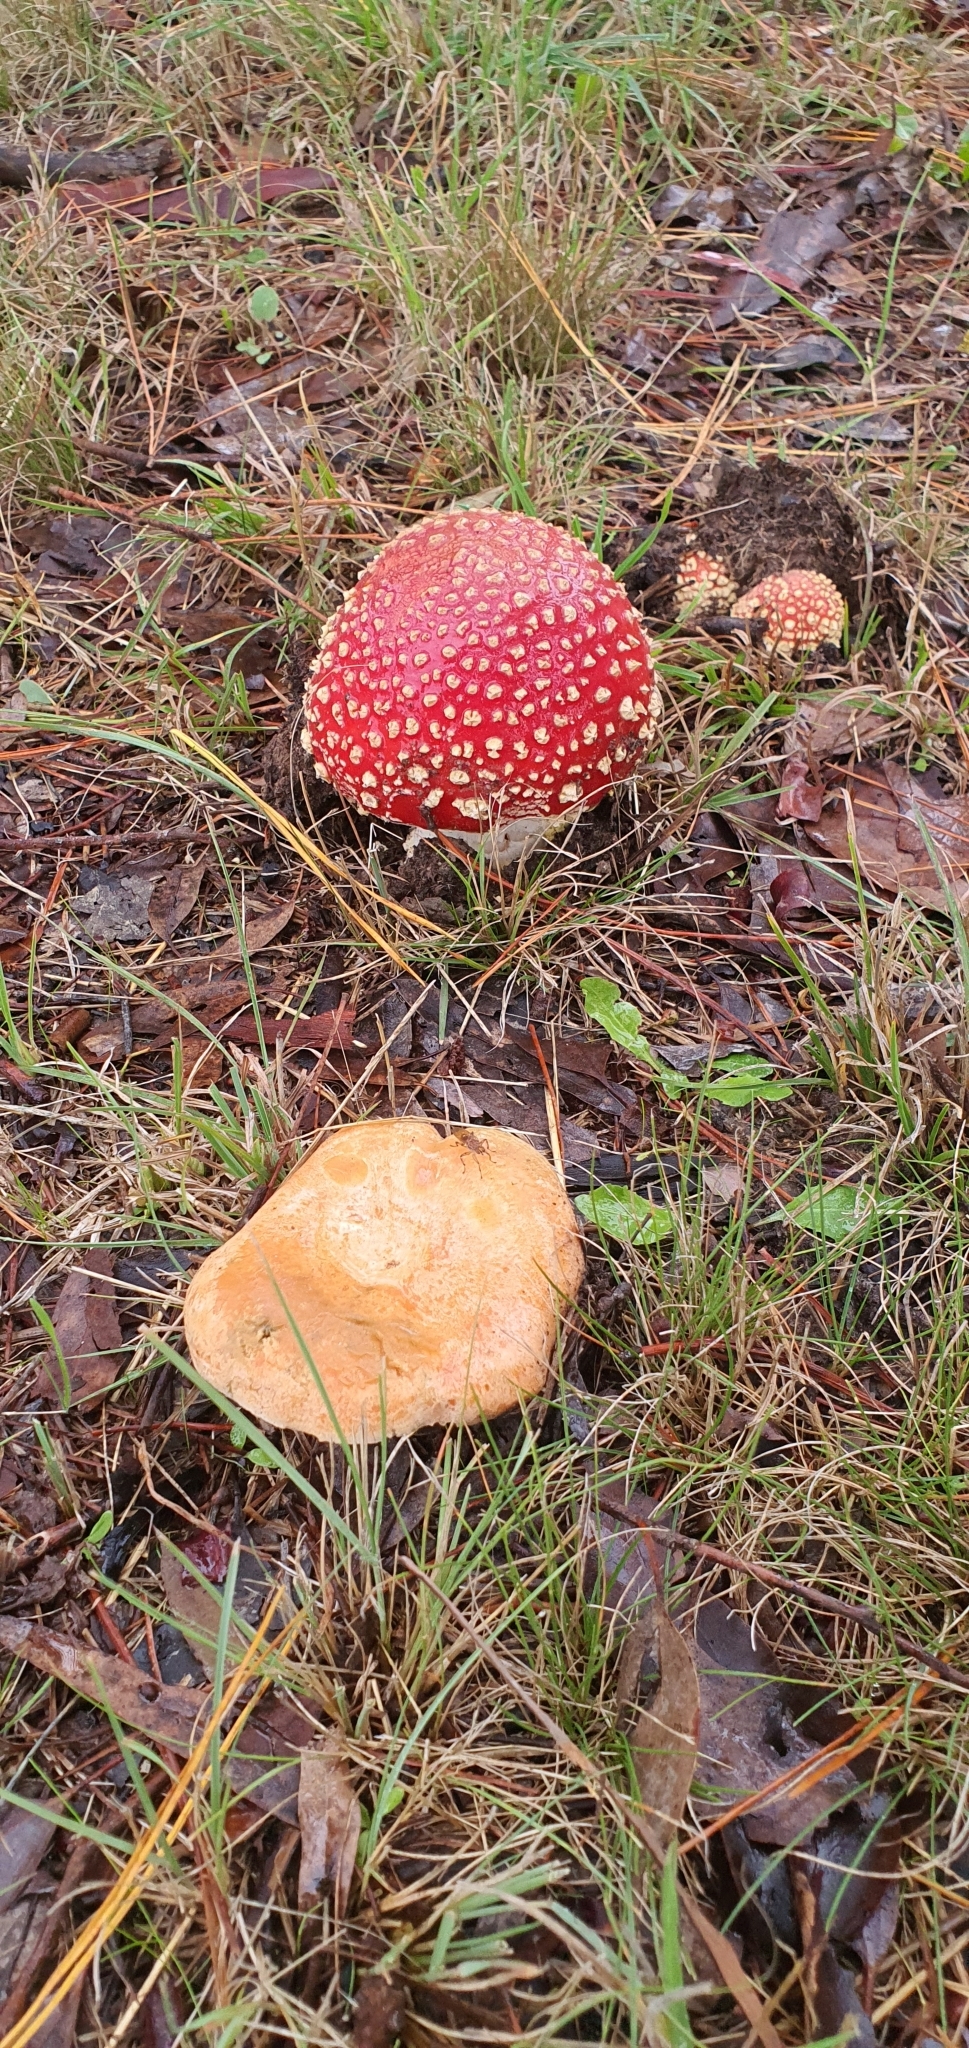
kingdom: Fungi
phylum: Basidiomycota
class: Agaricomycetes
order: Russulales
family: Russulaceae
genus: Lactarius
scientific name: Lactarius deliciosus
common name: Saffron milk-cap
